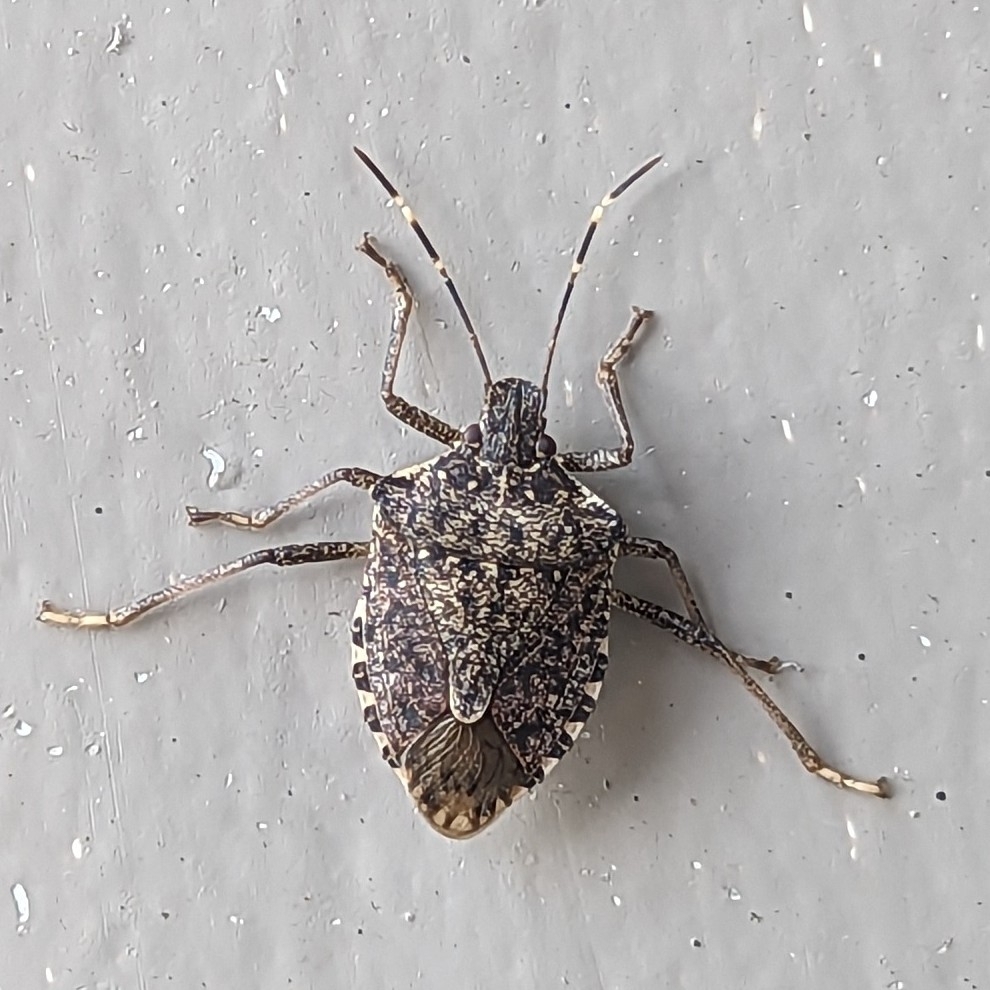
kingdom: Animalia
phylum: Arthropoda
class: Insecta
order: Hemiptera
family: Pentatomidae
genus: Halyomorpha
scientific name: Halyomorpha halys
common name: Brown marmorated stink bug
